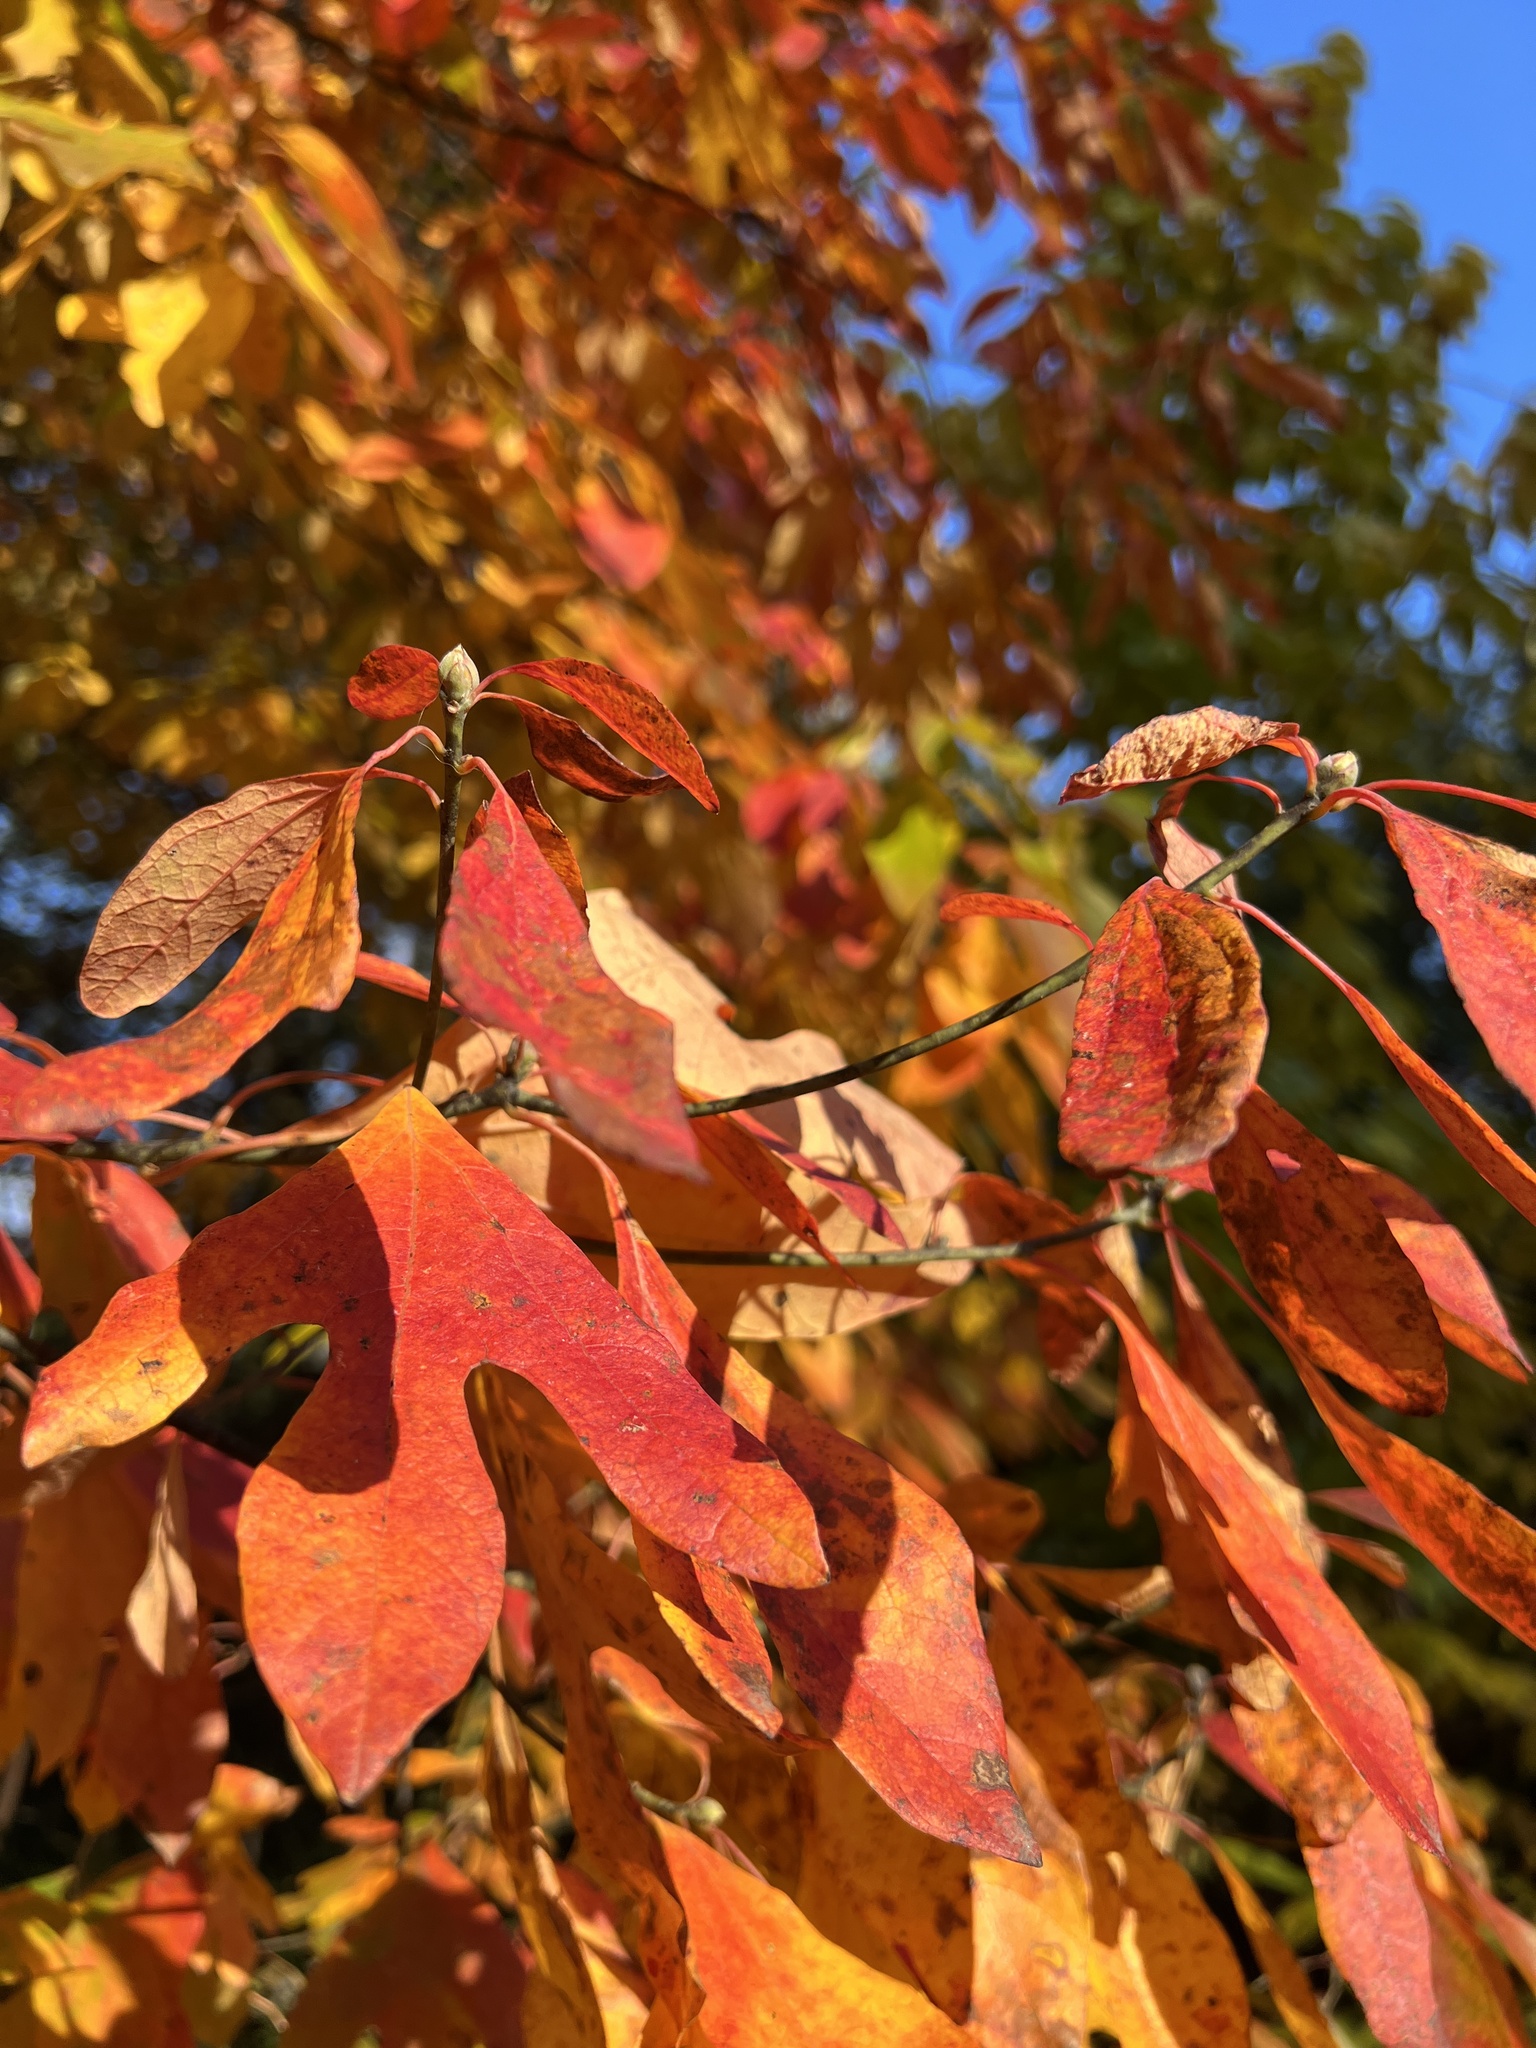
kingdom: Plantae
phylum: Tracheophyta
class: Magnoliopsida
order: Laurales
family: Lauraceae
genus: Sassafras
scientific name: Sassafras albidum
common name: Sassafras
